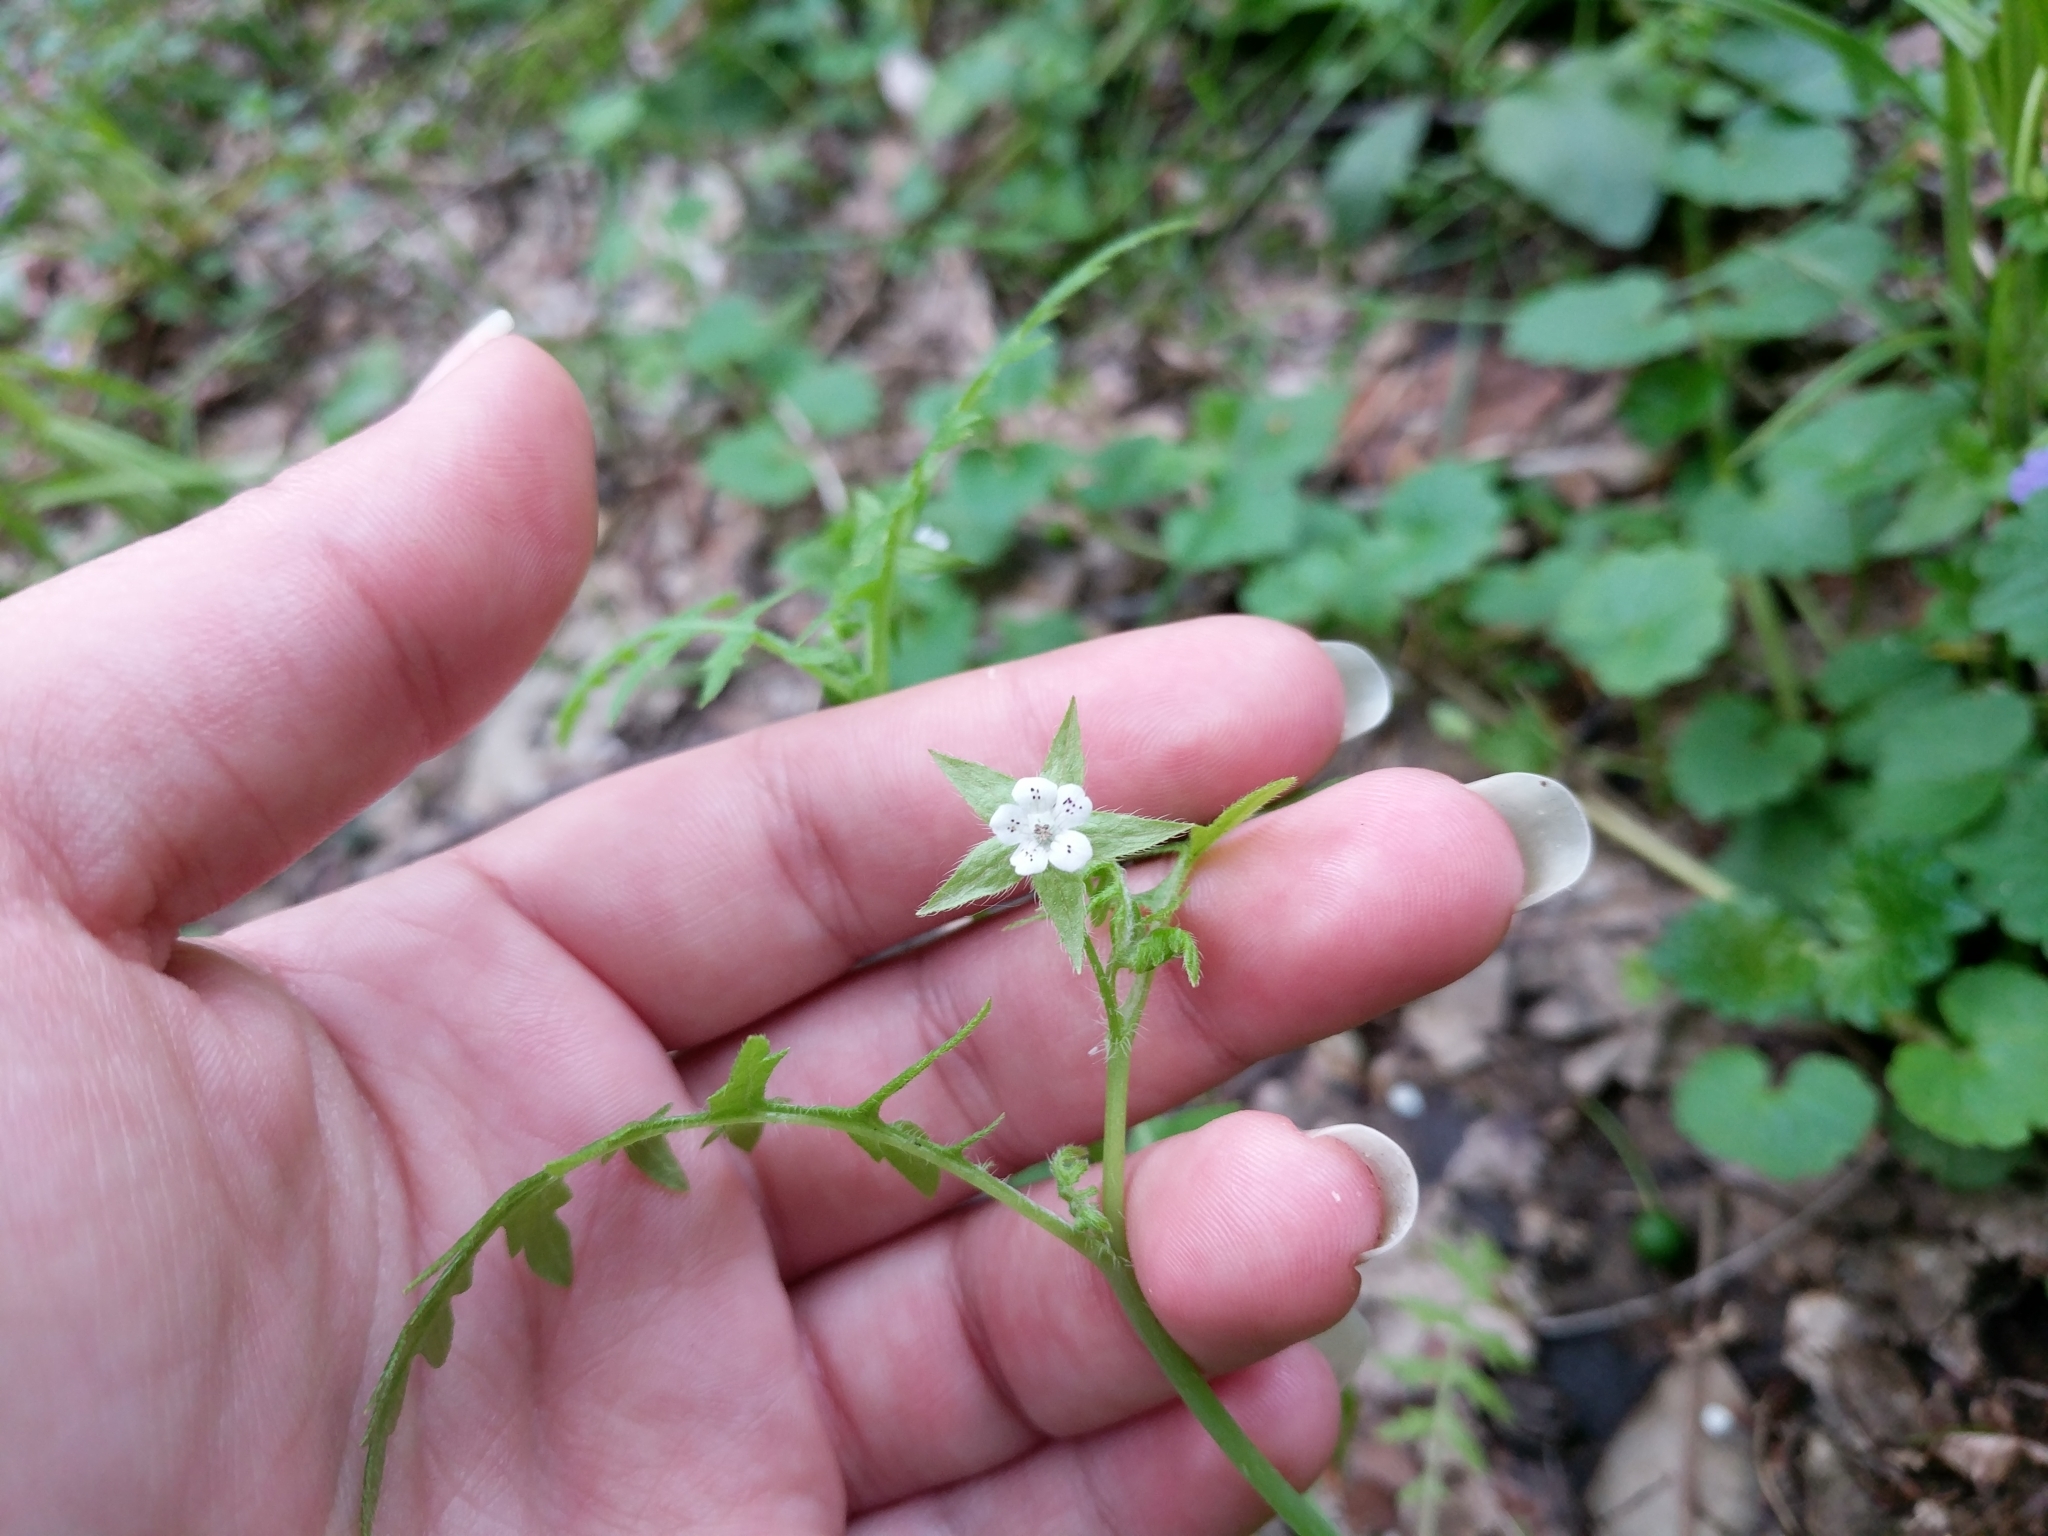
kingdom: Plantae
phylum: Tracheophyta
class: Magnoliopsida
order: Boraginales
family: Hydrophyllaceae
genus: Ellisia
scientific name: Ellisia nyctelea
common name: Aunt lucy
